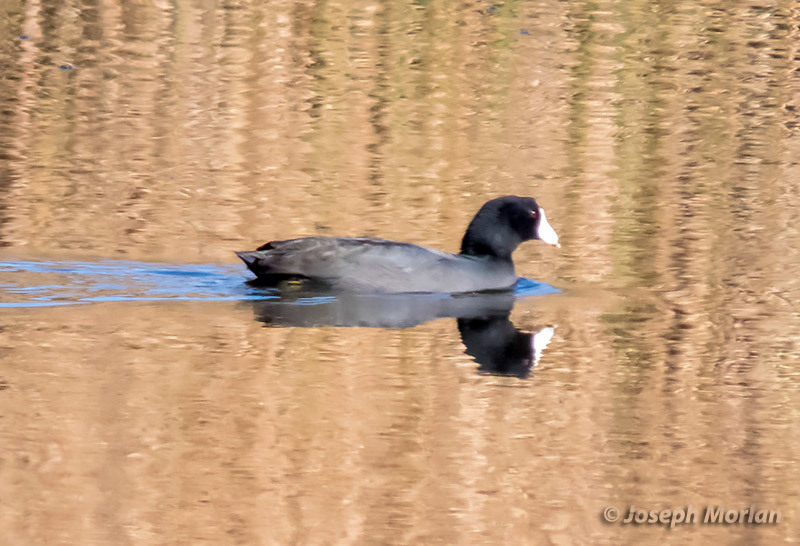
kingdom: Animalia
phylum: Chordata
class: Aves
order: Gruiformes
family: Rallidae
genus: Fulica
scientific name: Fulica americana
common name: American coot
